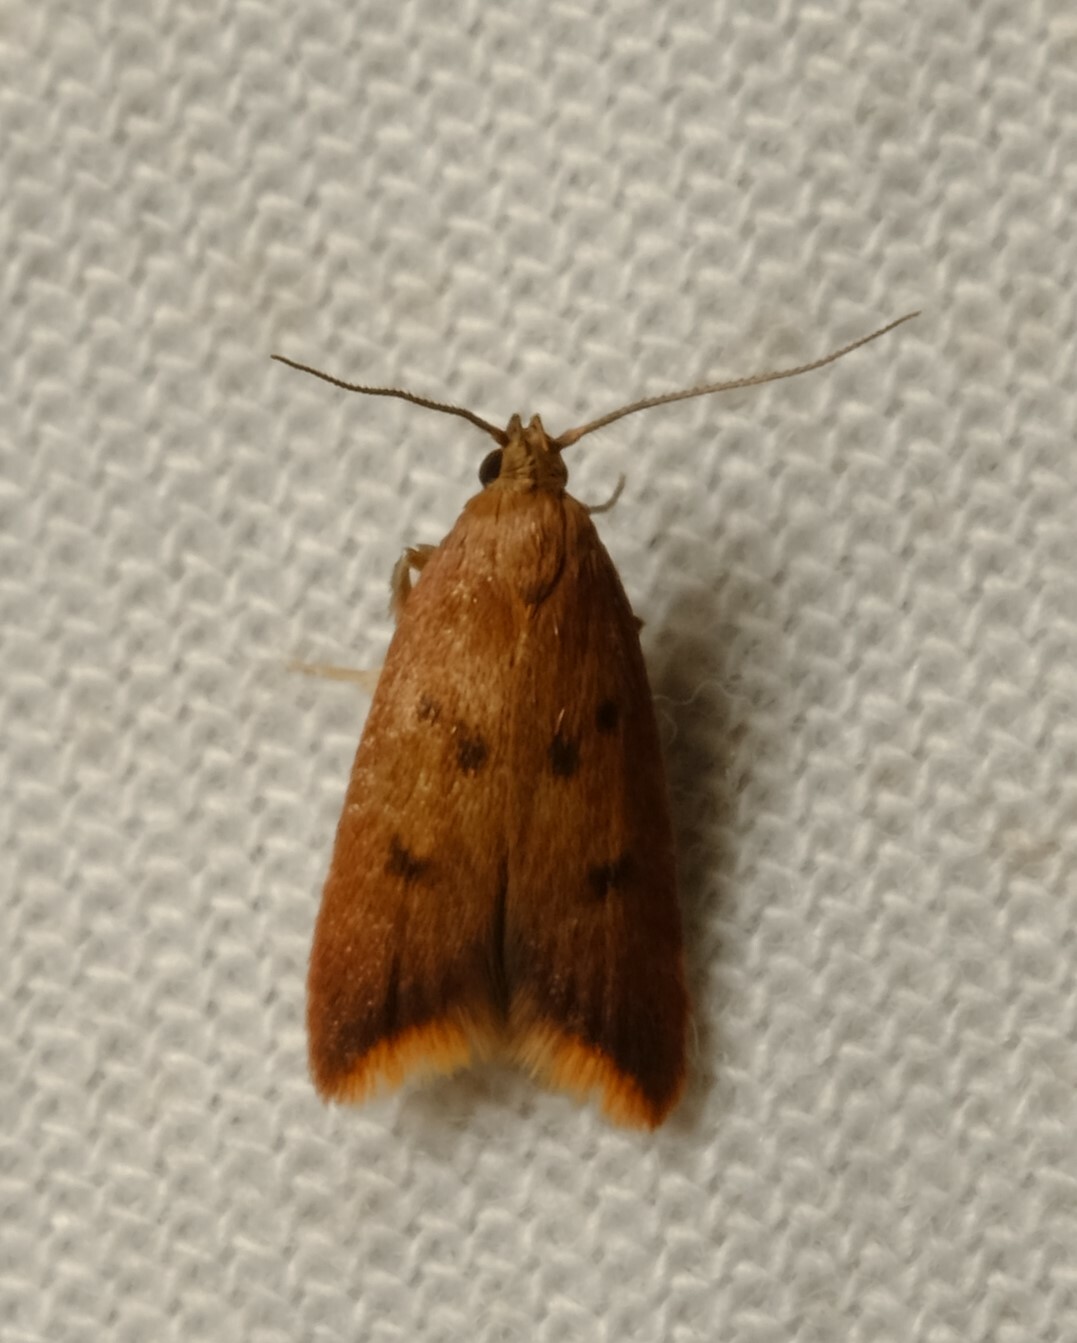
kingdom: Animalia
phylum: Arthropoda
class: Insecta
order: Lepidoptera
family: Oecophoridae
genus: Tachystola
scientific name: Tachystola acroxantha
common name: Ruddy streak
